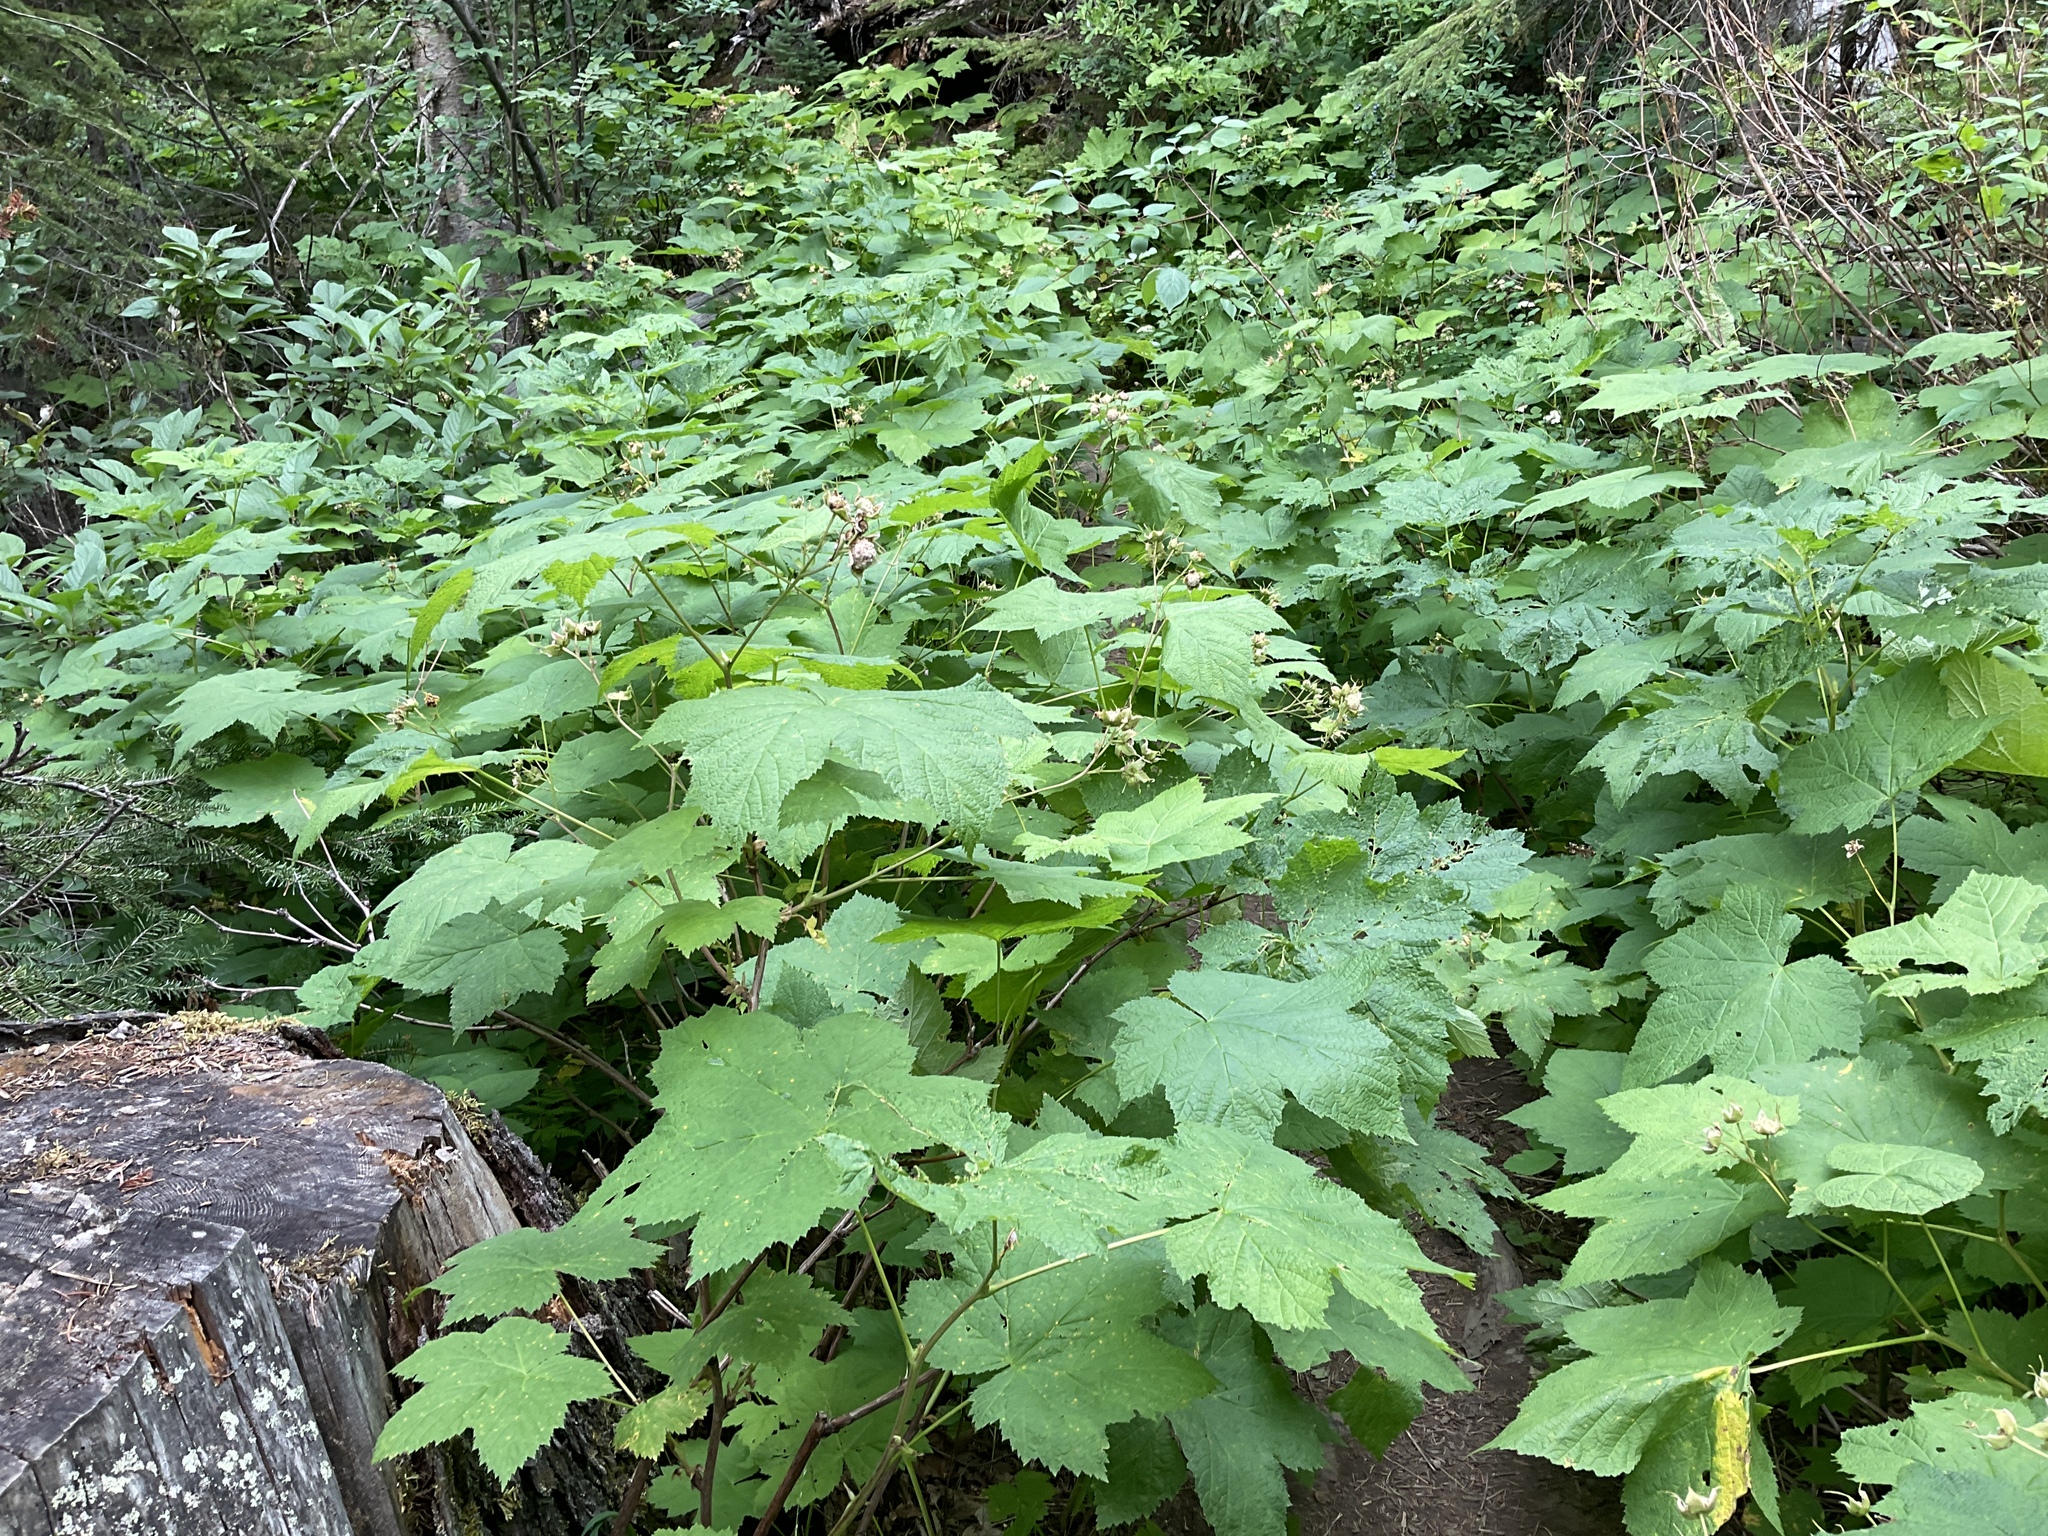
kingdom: Plantae
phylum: Tracheophyta
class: Magnoliopsida
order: Rosales
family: Rosaceae
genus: Rubus
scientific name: Rubus parviflorus
